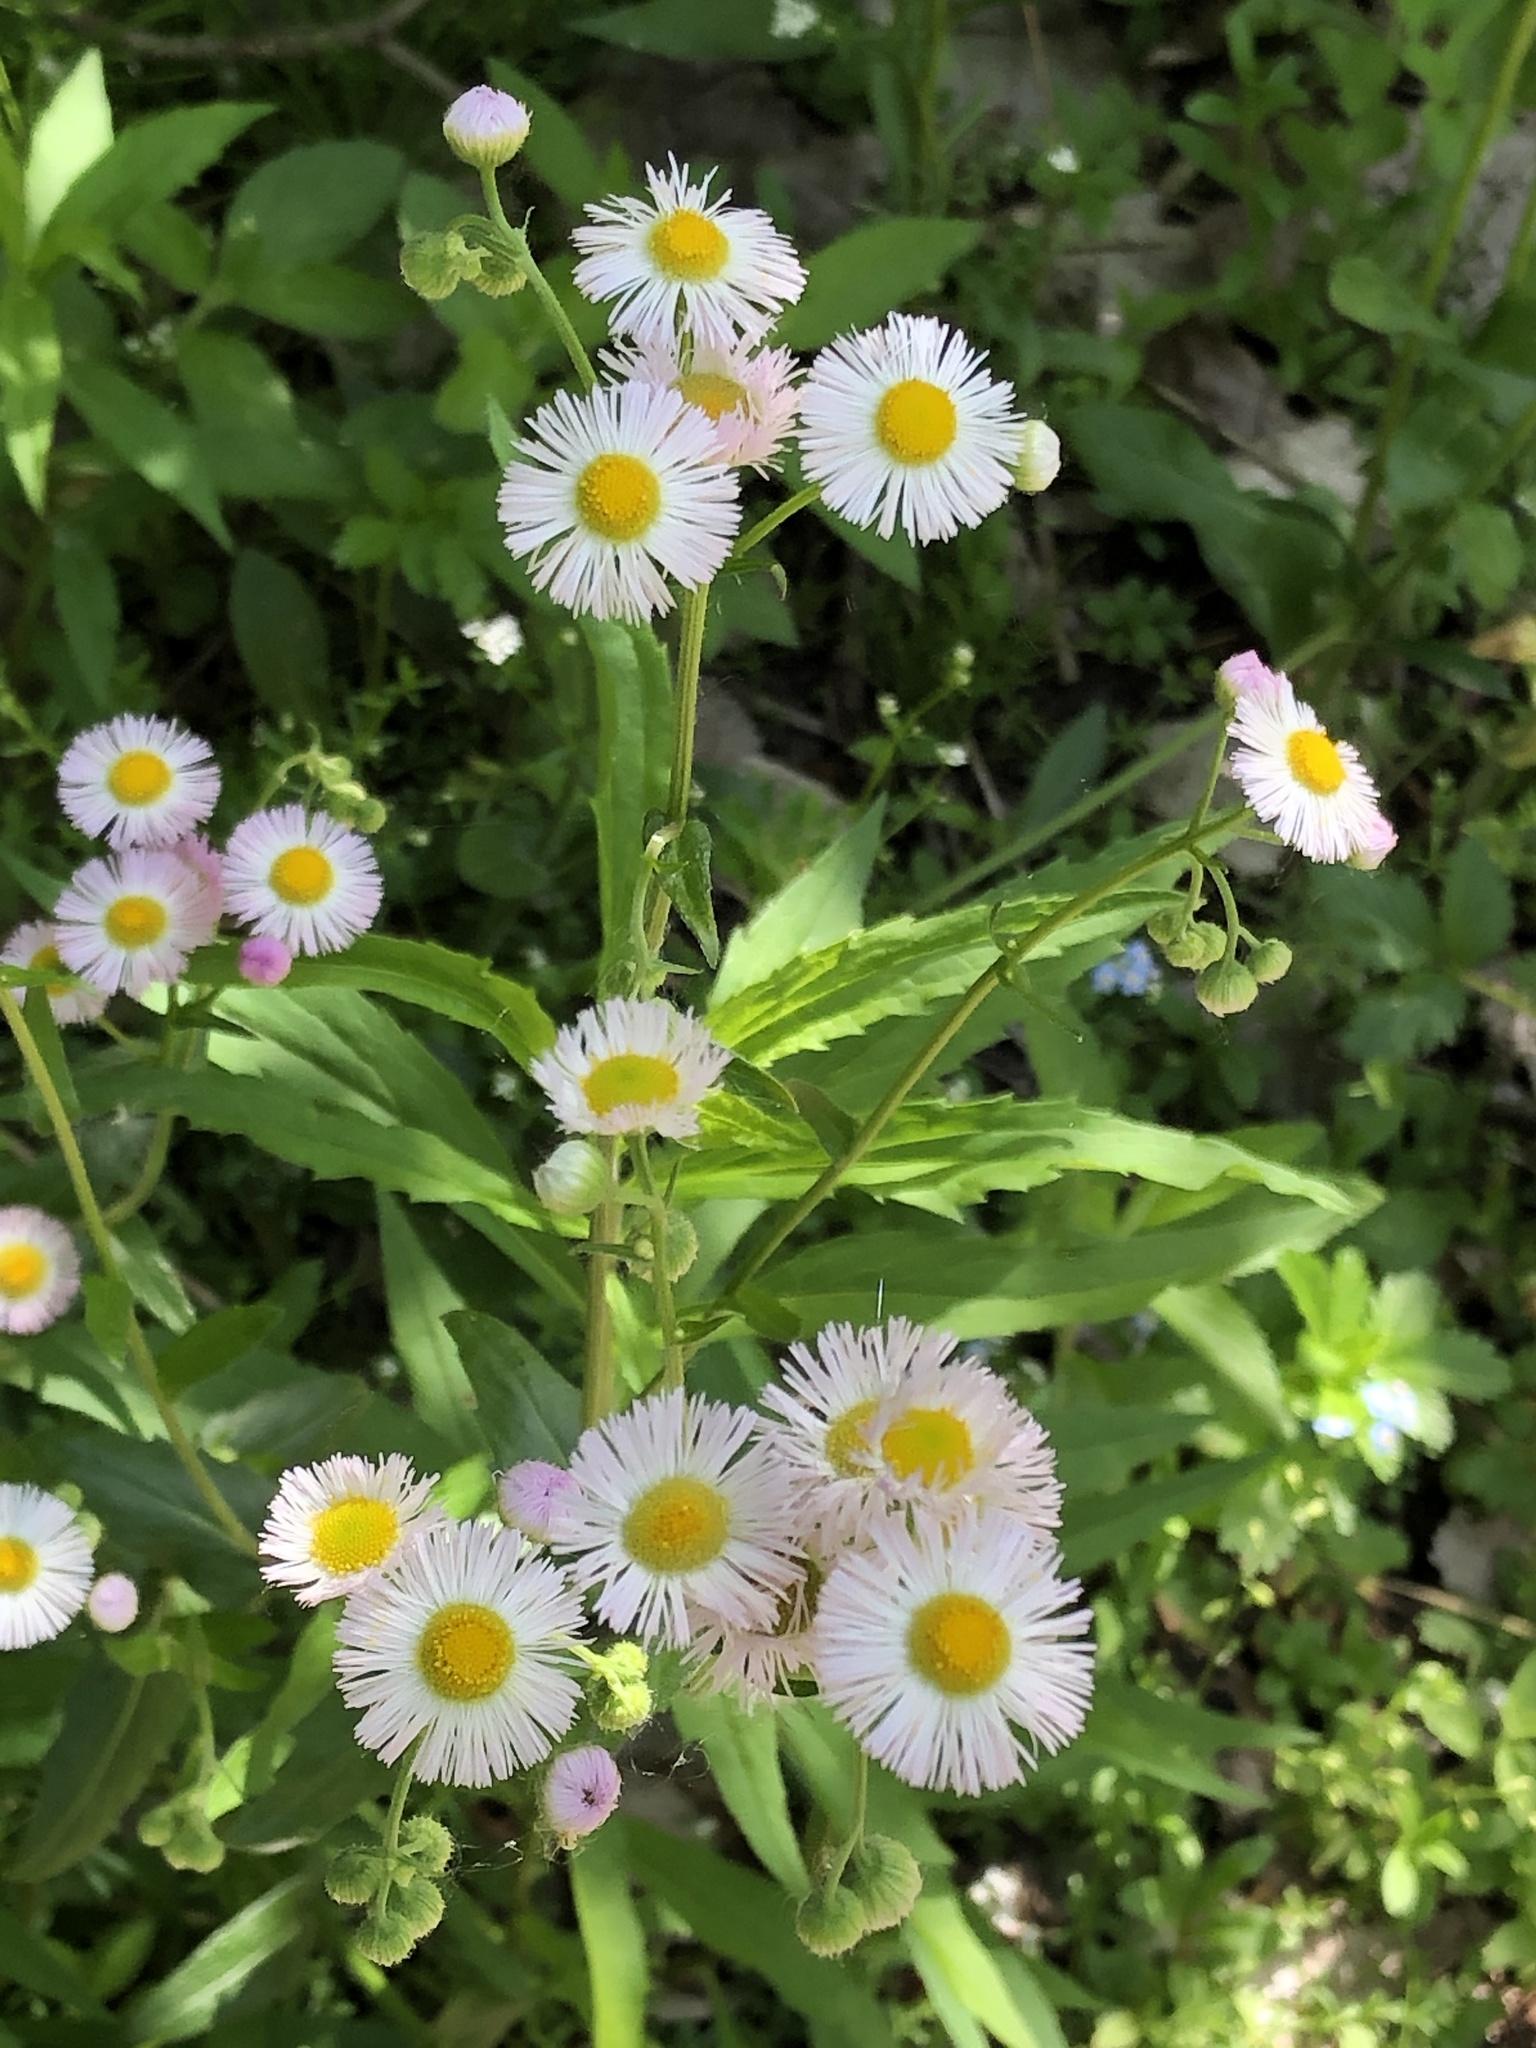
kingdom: Plantae
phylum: Tracheophyta
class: Magnoliopsida
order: Asterales
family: Asteraceae
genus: Erigeron
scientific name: Erigeron philadelphicus
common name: Robin's-plantain
